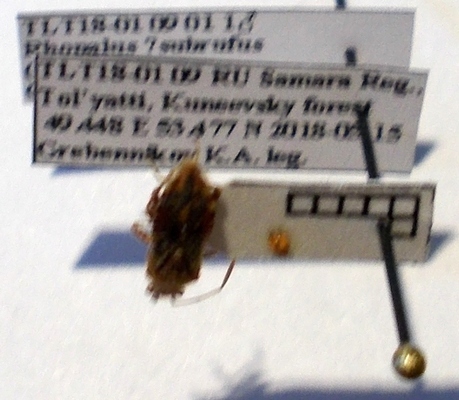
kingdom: Animalia
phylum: Arthropoda
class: Insecta
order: Hemiptera
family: Rhopalidae
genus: Rhopalus
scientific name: Rhopalus subrufus
